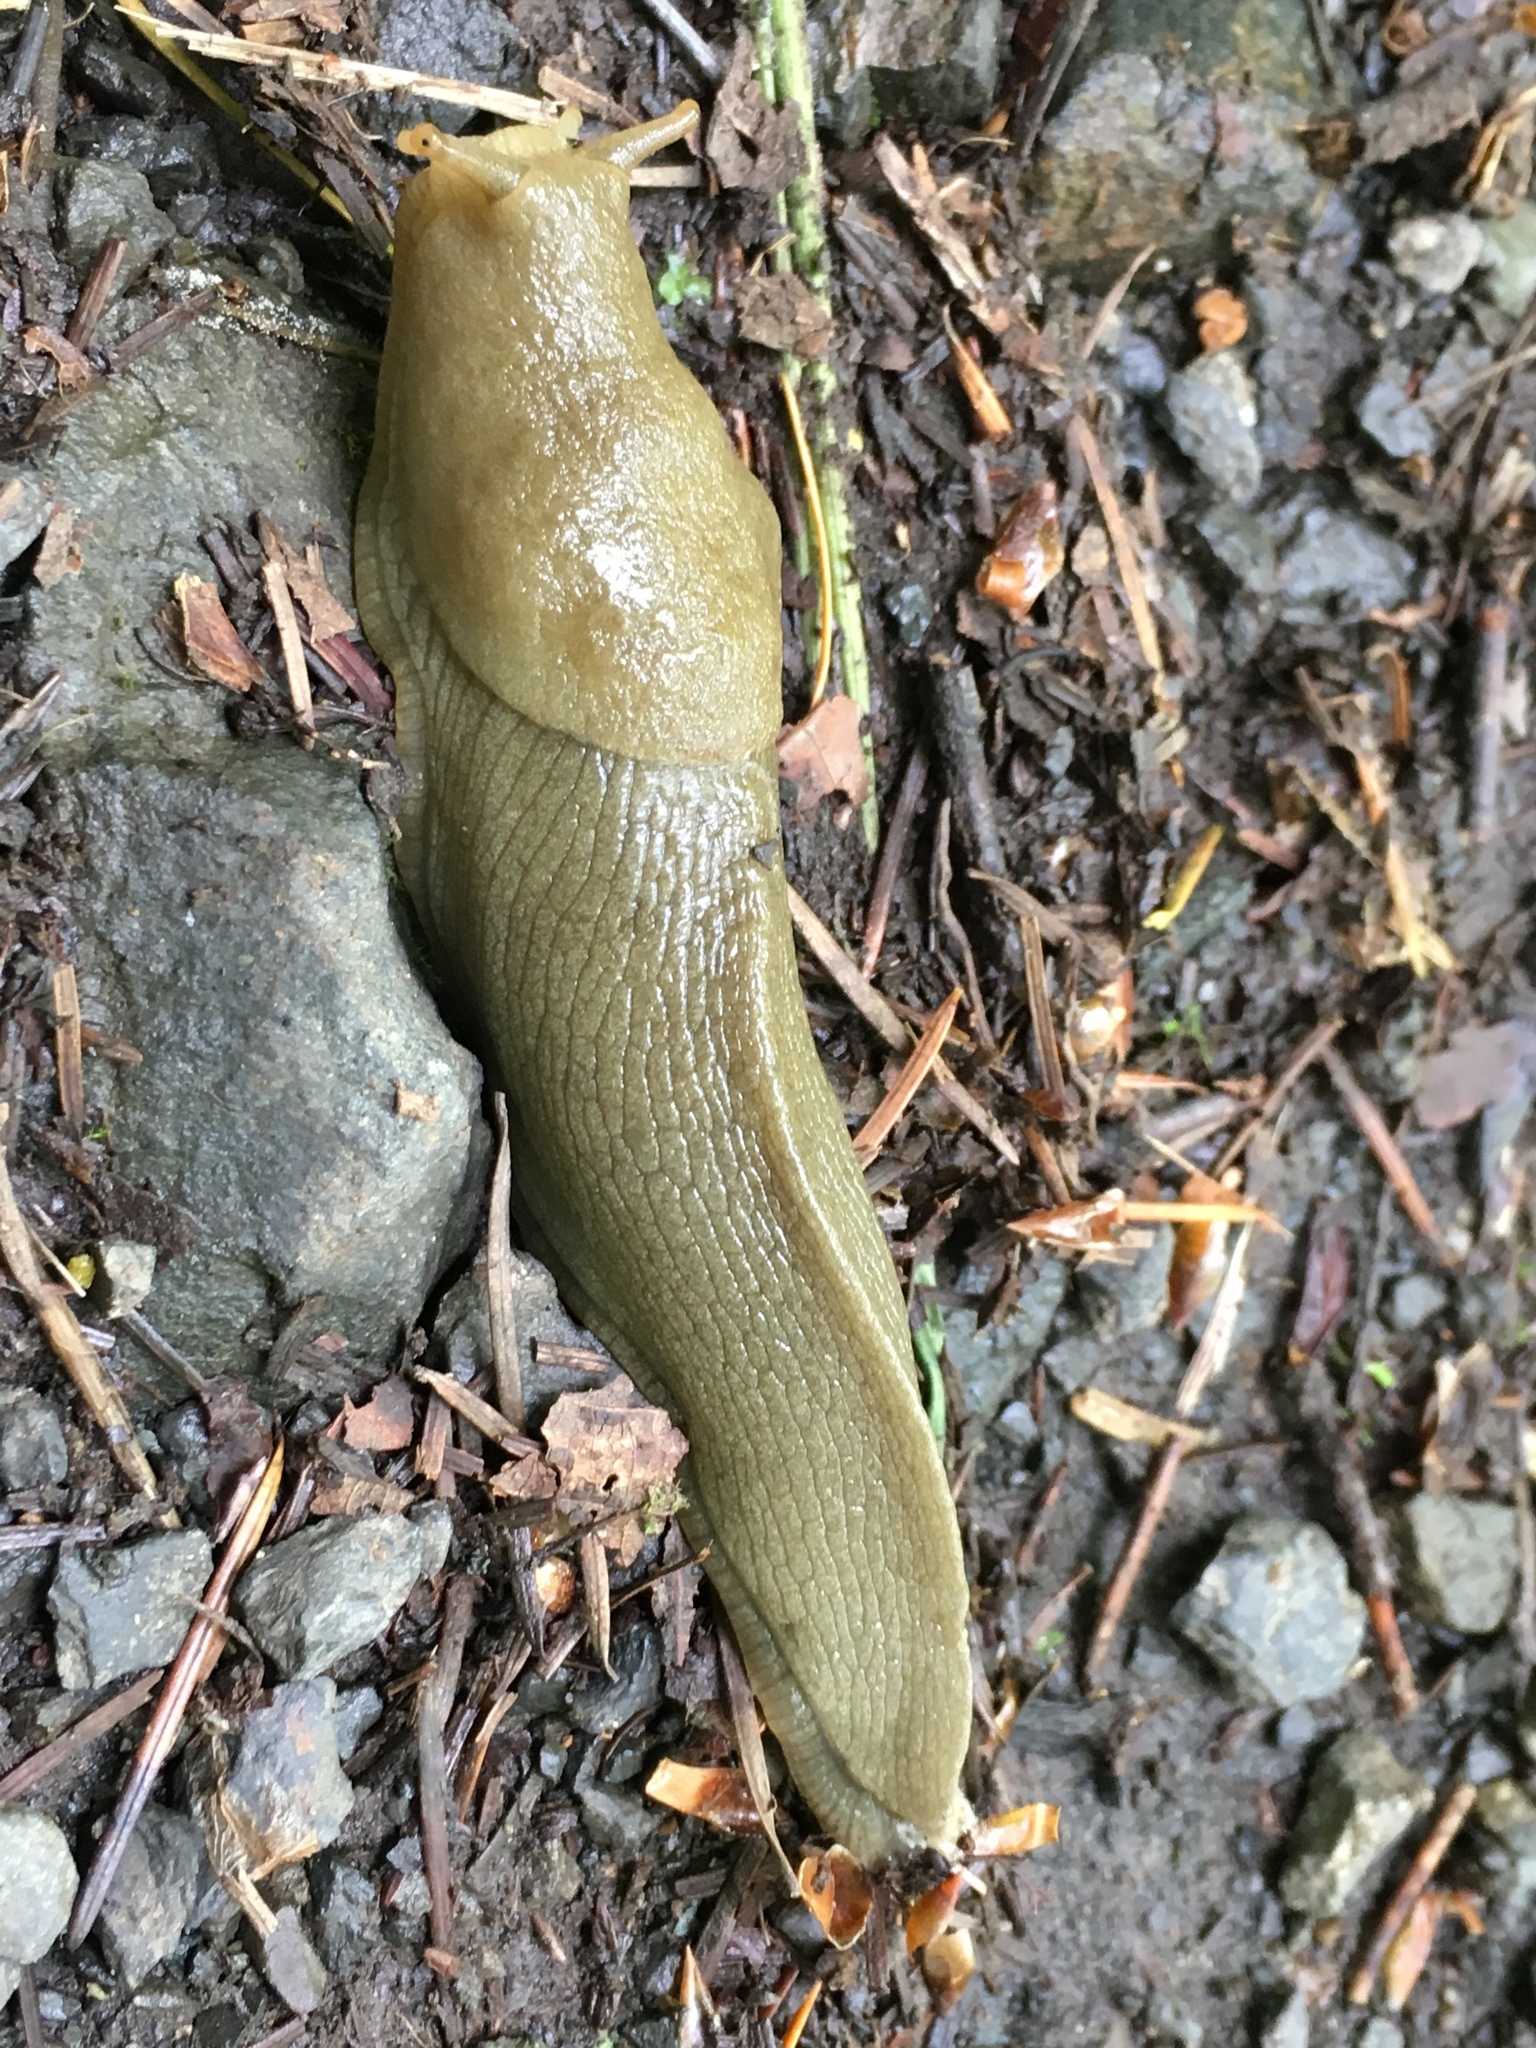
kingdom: Animalia
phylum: Mollusca
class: Gastropoda
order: Stylommatophora
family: Ariolimacidae
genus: Ariolimax
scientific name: Ariolimax columbianus
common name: Pacific banana slug
